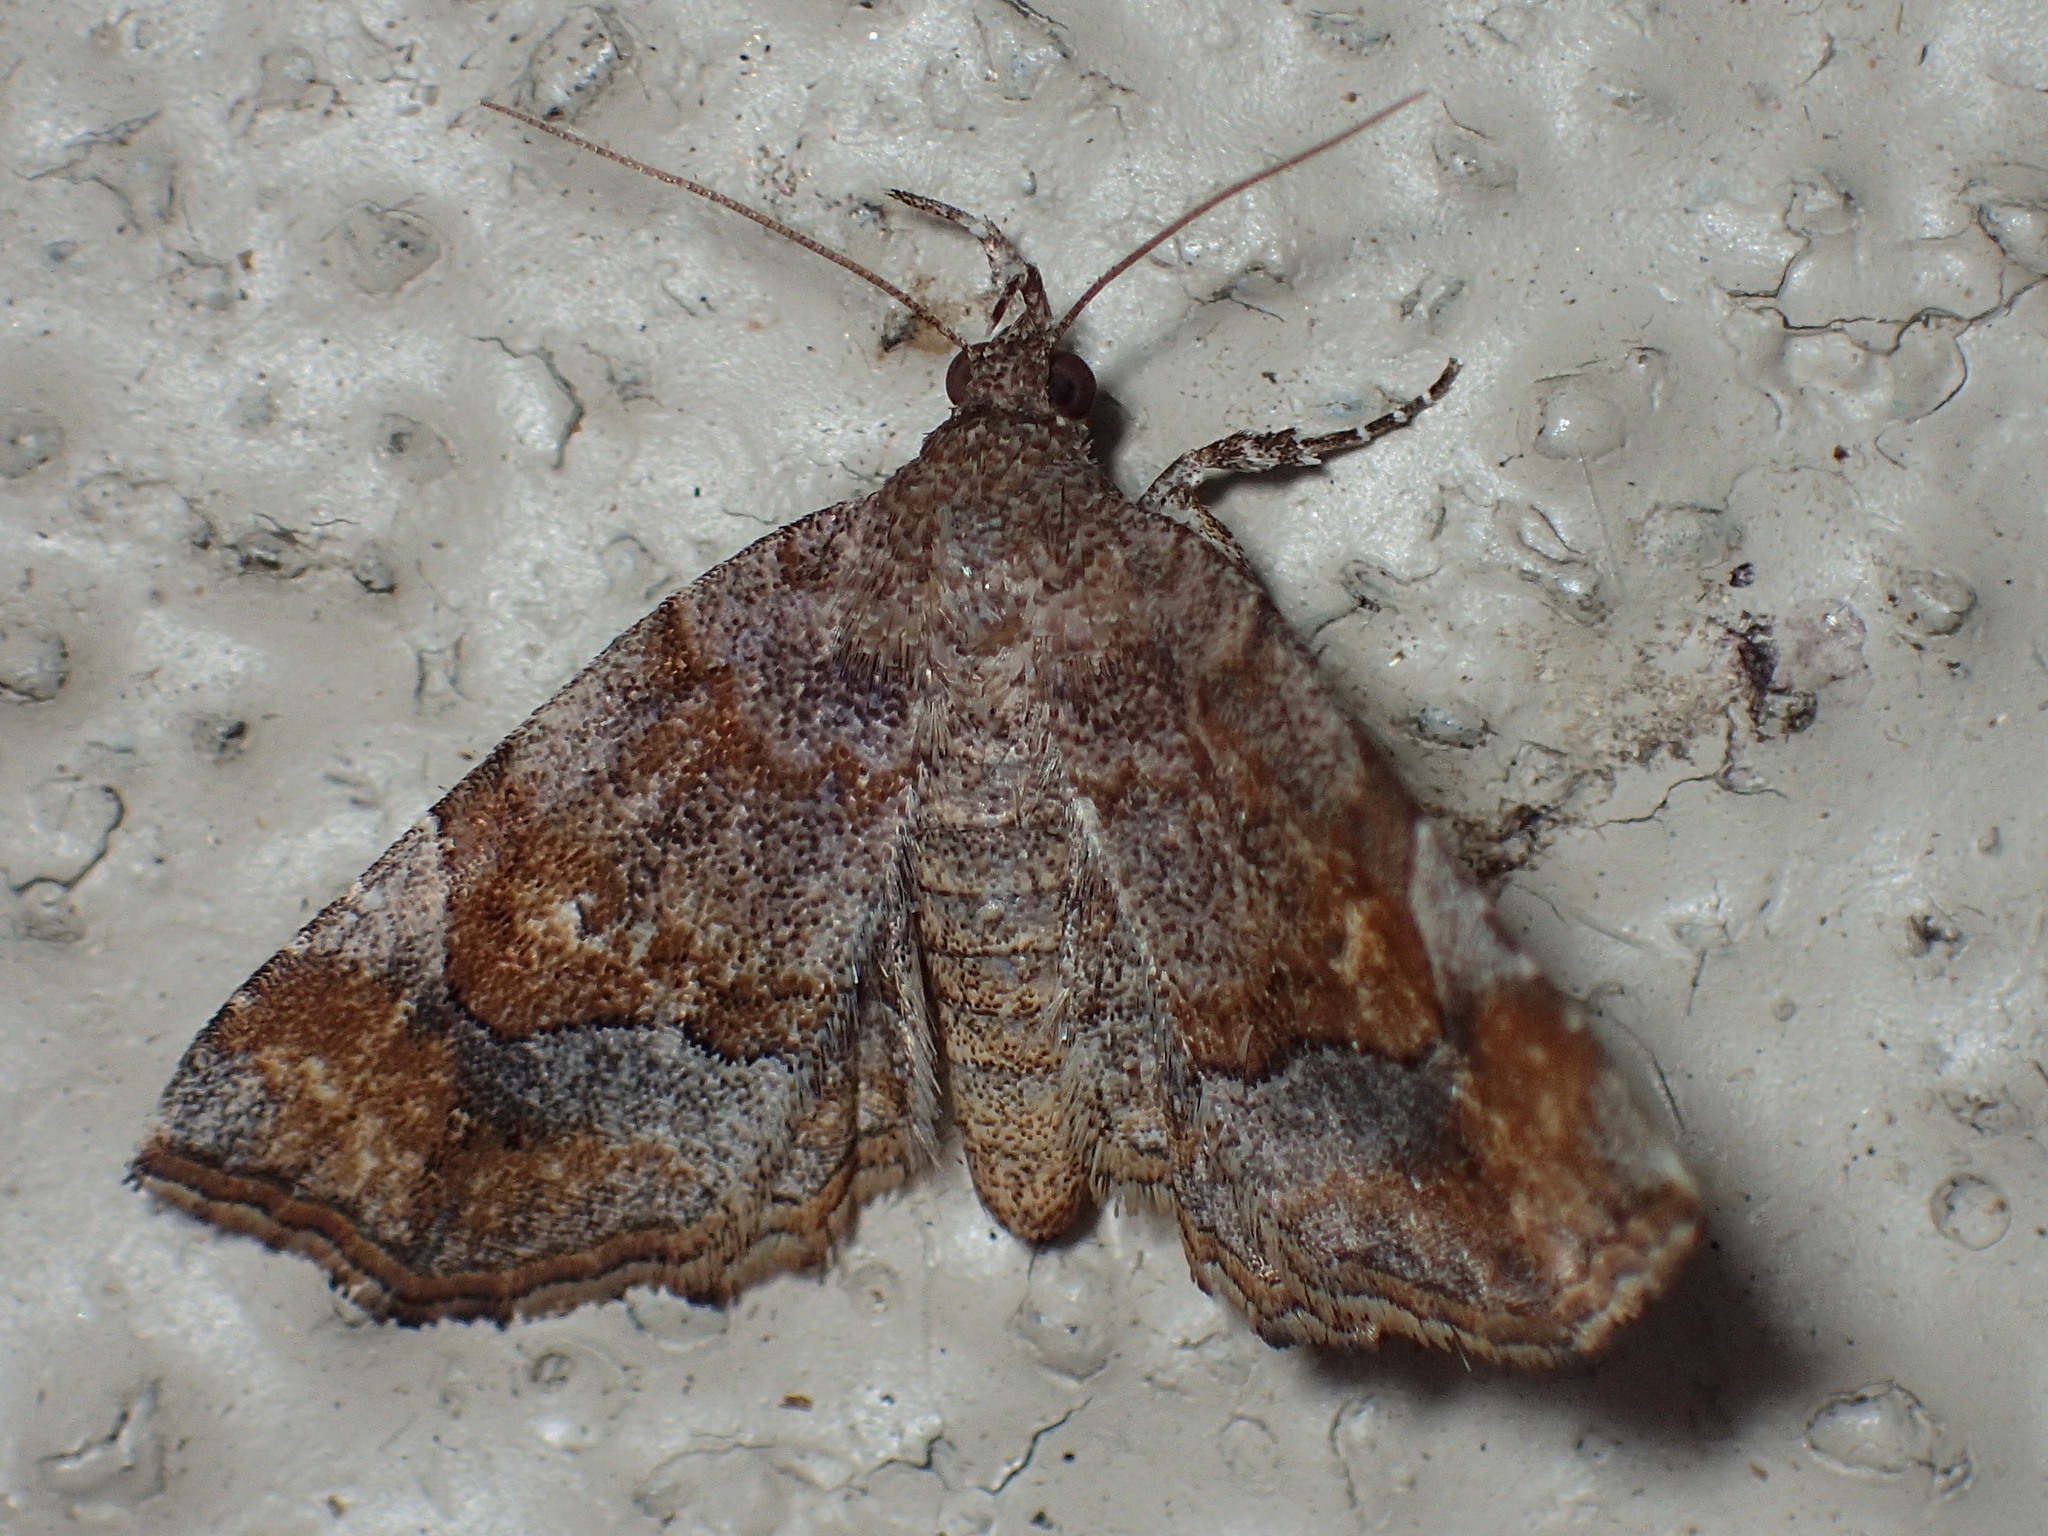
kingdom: Animalia
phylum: Arthropoda
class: Insecta
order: Lepidoptera
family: Erebidae
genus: Pangrapta
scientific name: Pangrapta decoralis
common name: Decorated owlet
